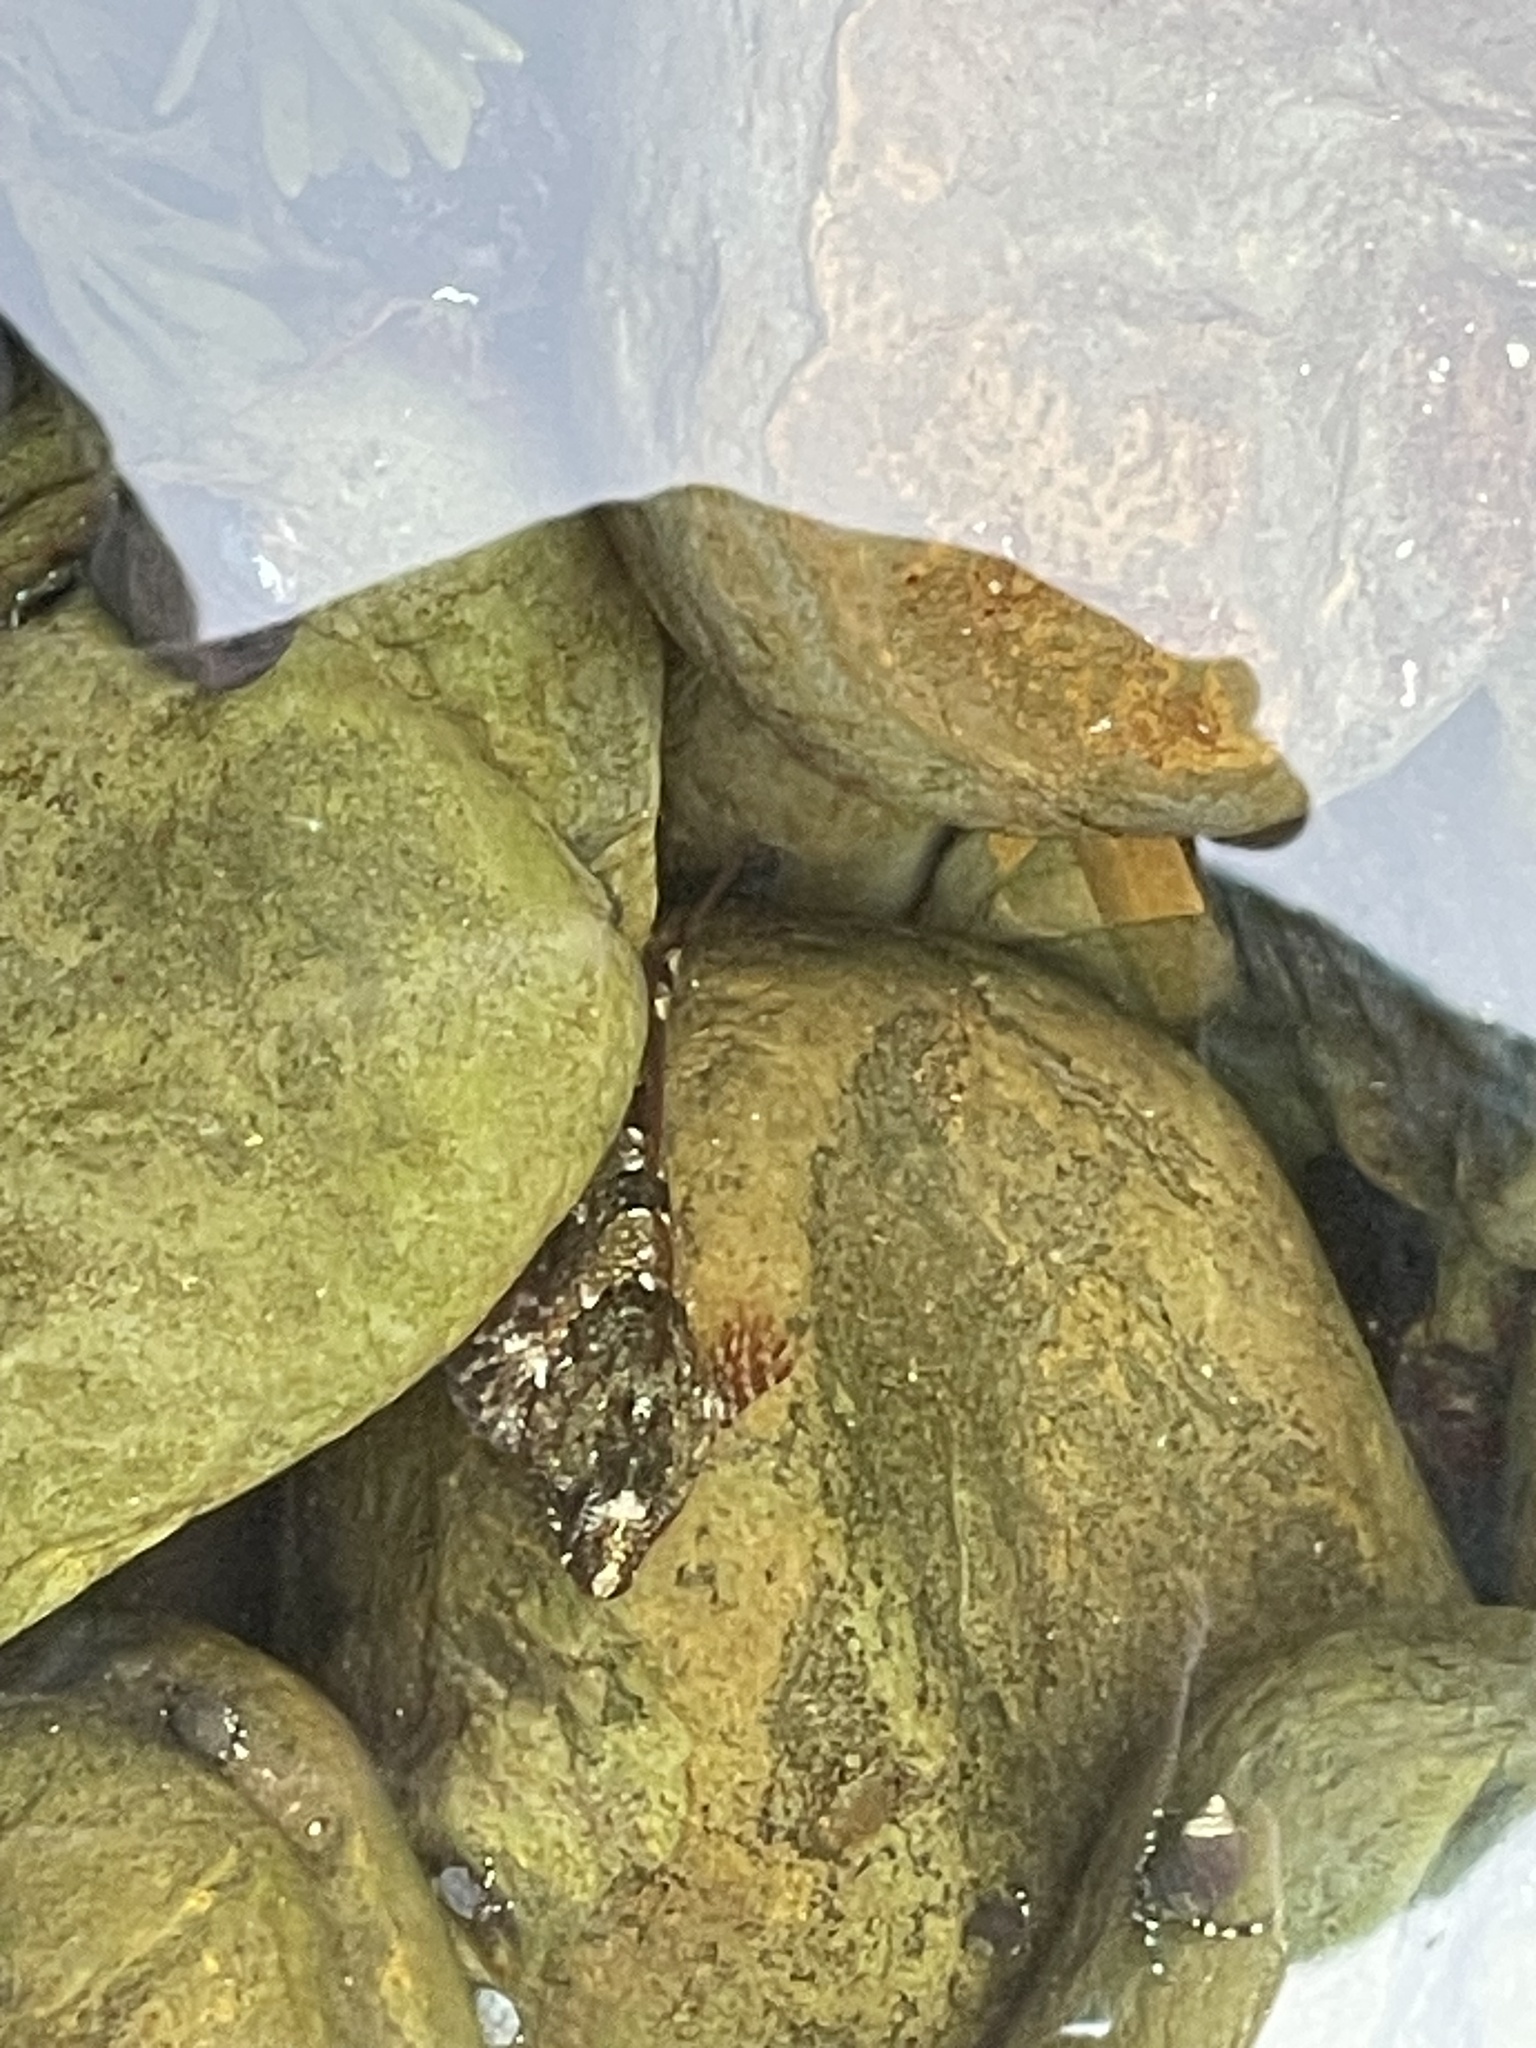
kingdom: Animalia
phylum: Chordata
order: Scorpaeniformes
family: Cottidae
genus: Oligocottus
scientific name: Oligocottus maculosus
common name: Tidepool sculpin
